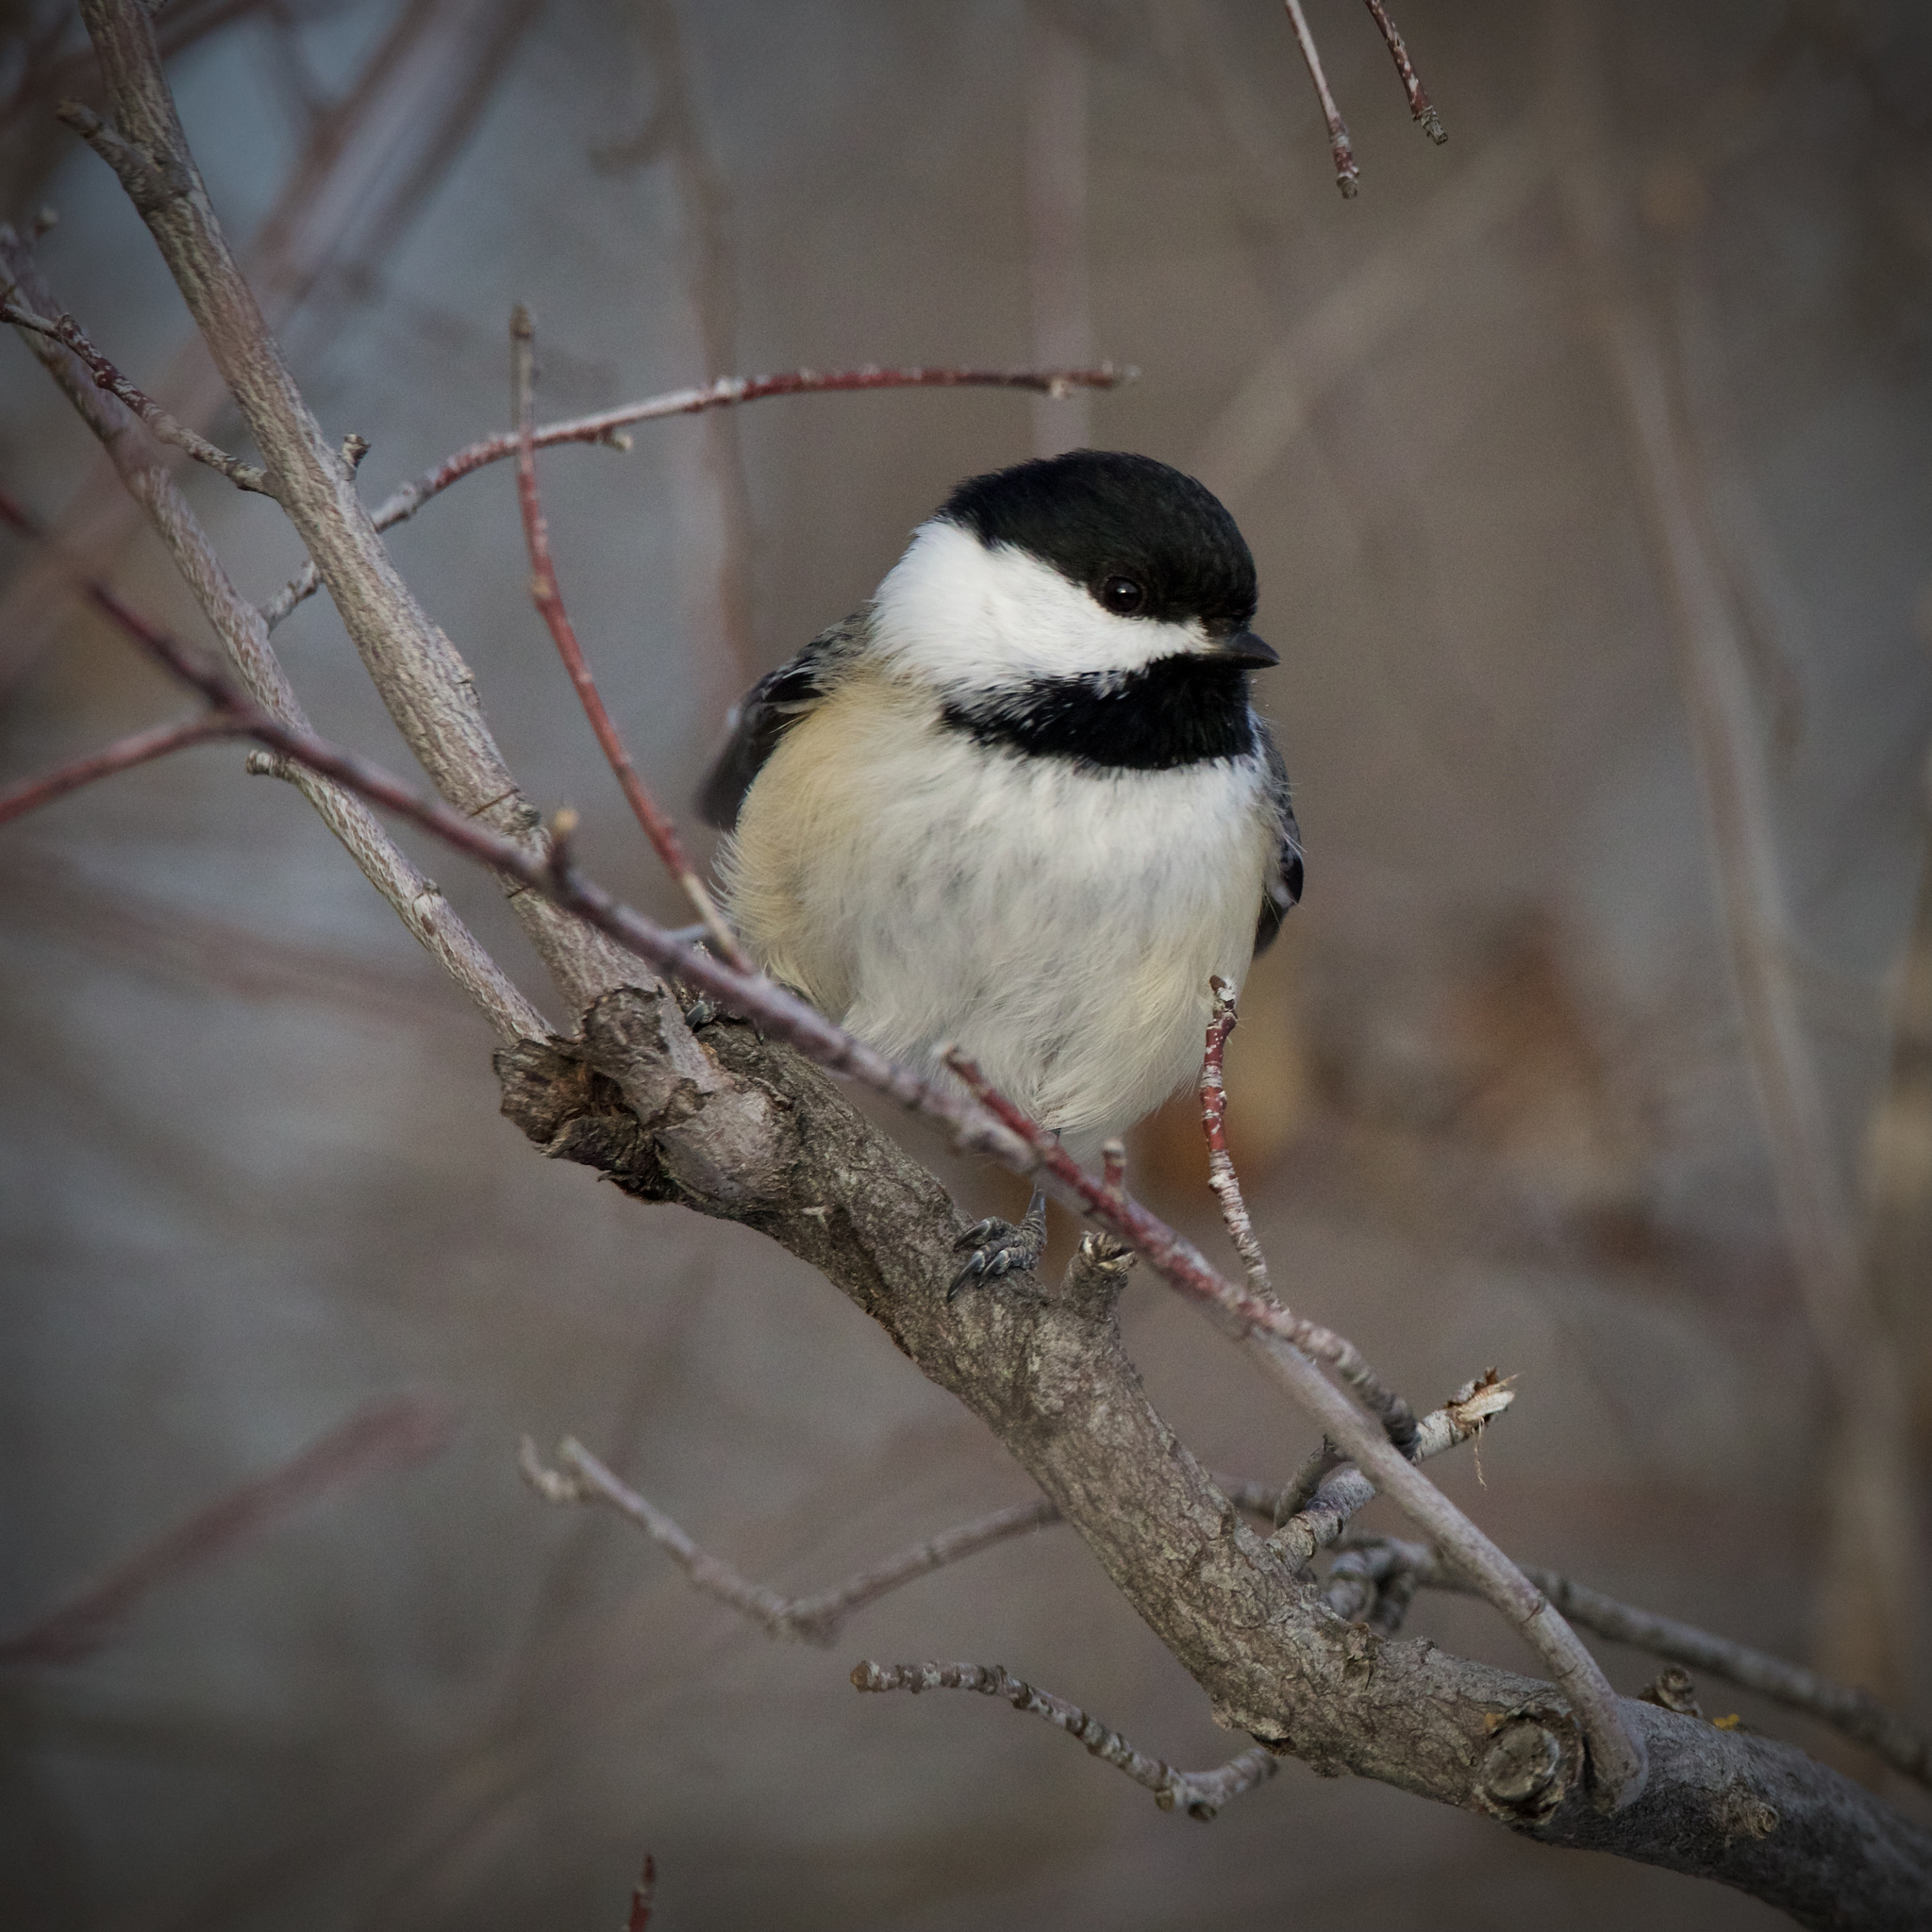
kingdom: Animalia
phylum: Chordata
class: Aves
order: Passeriformes
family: Paridae
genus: Poecile
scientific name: Poecile atricapillus
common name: Black-capped chickadee
